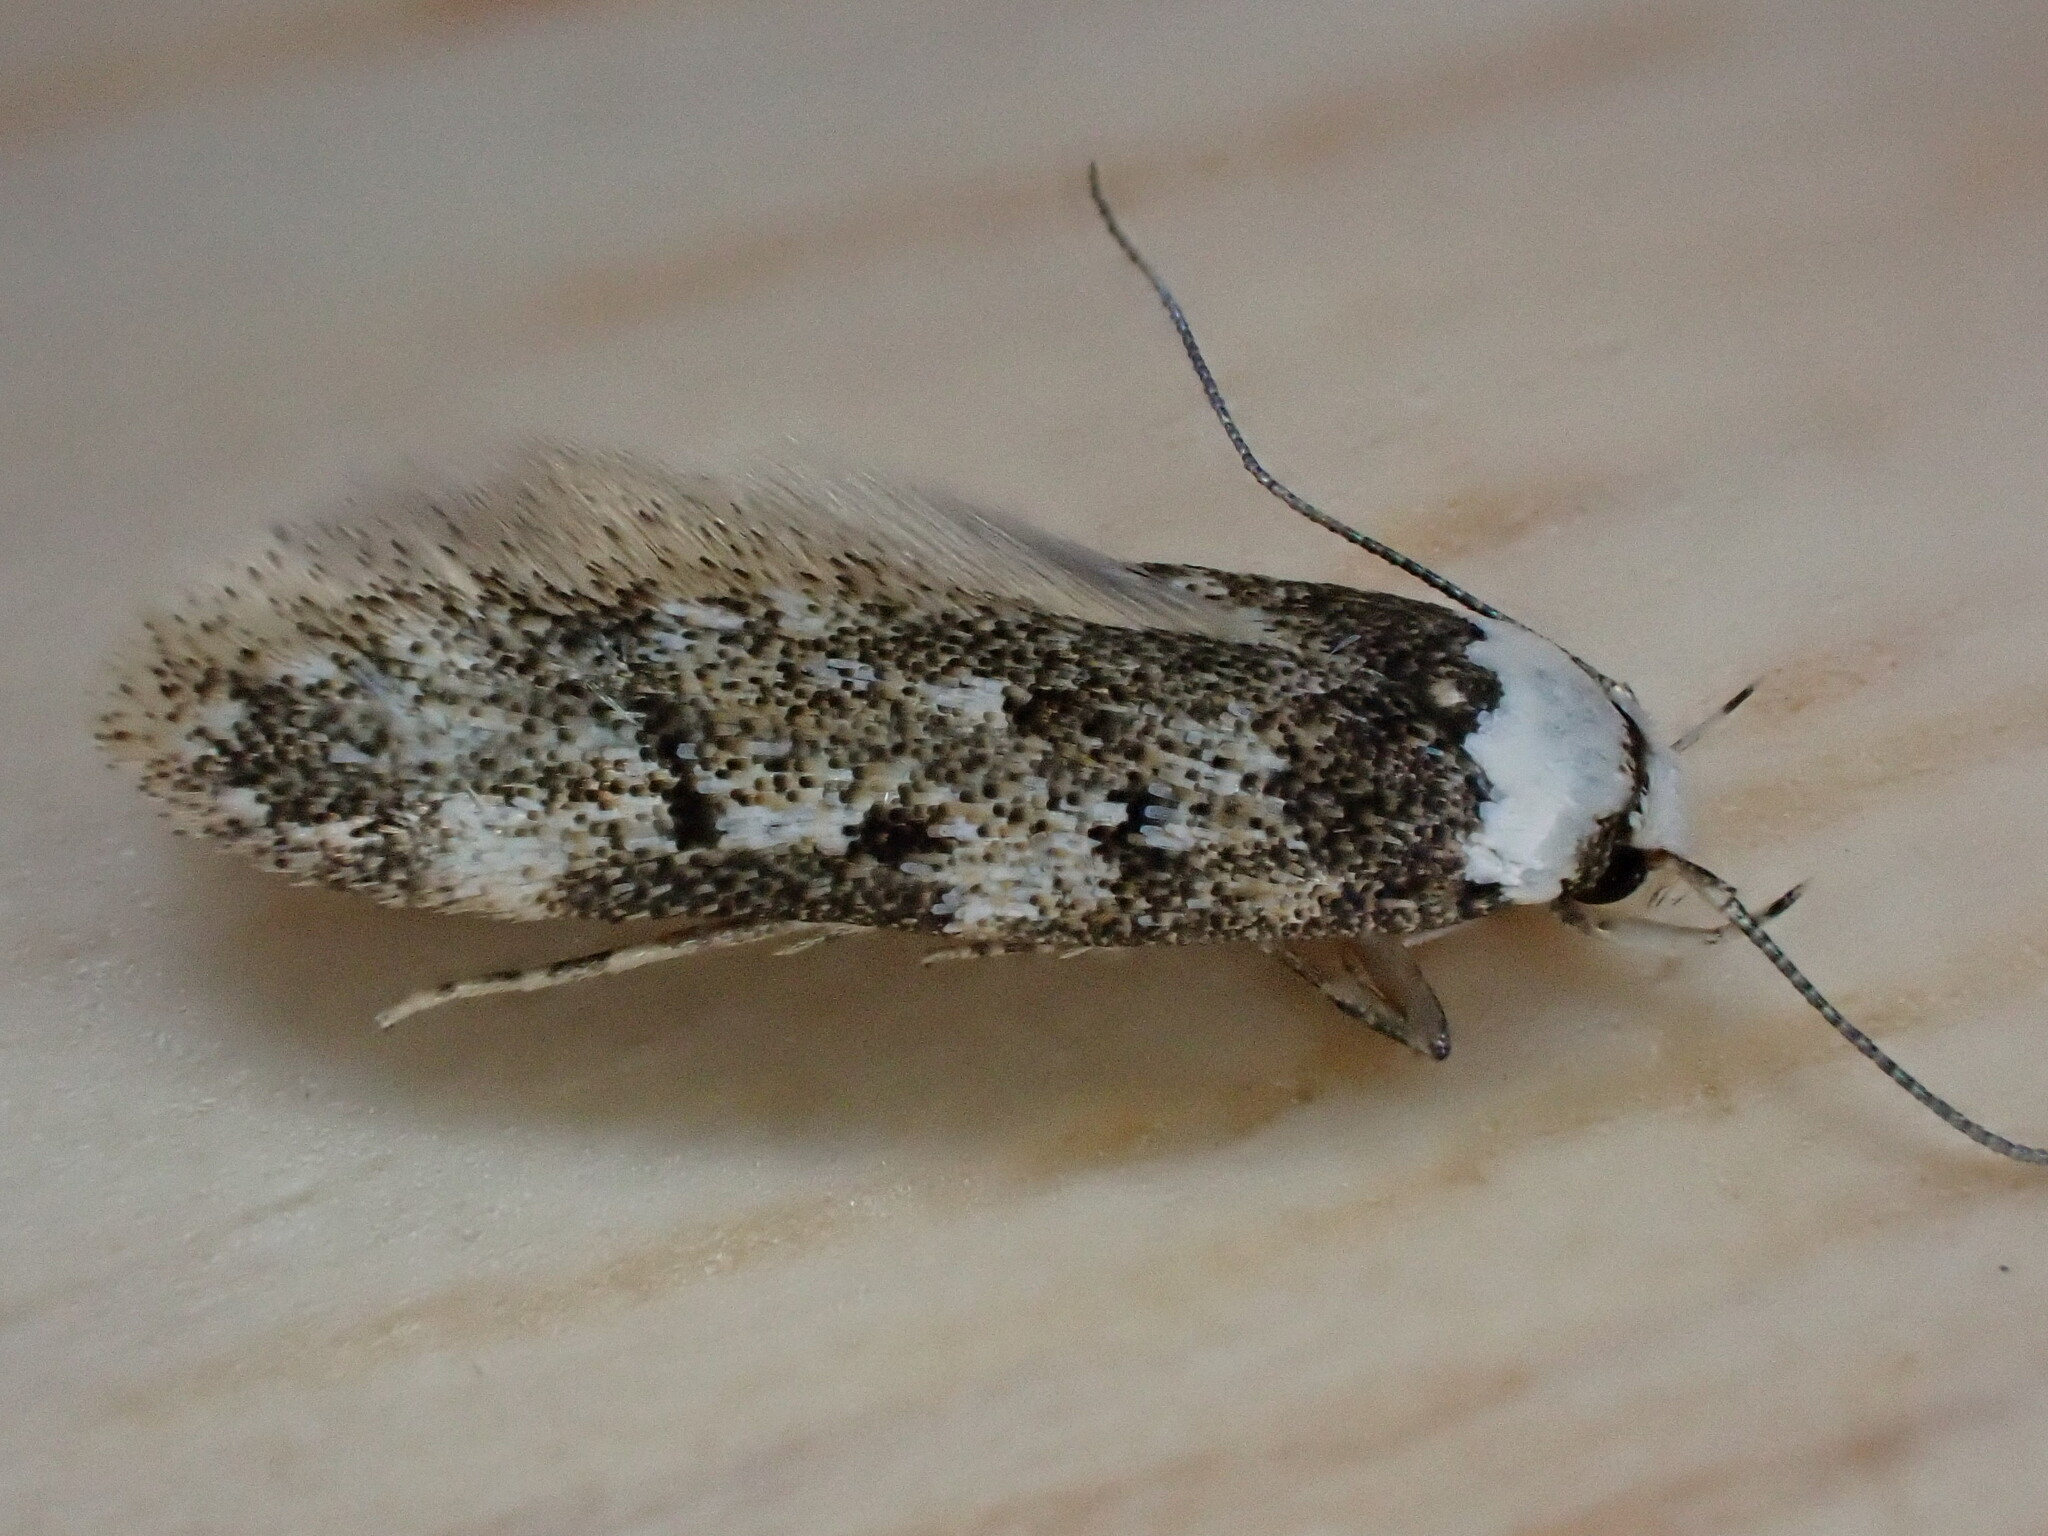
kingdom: Animalia
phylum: Arthropoda
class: Insecta
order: Lepidoptera
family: Oecophoridae
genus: Endrosis
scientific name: Endrosis sarcitrella
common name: White-shouldered house moth
